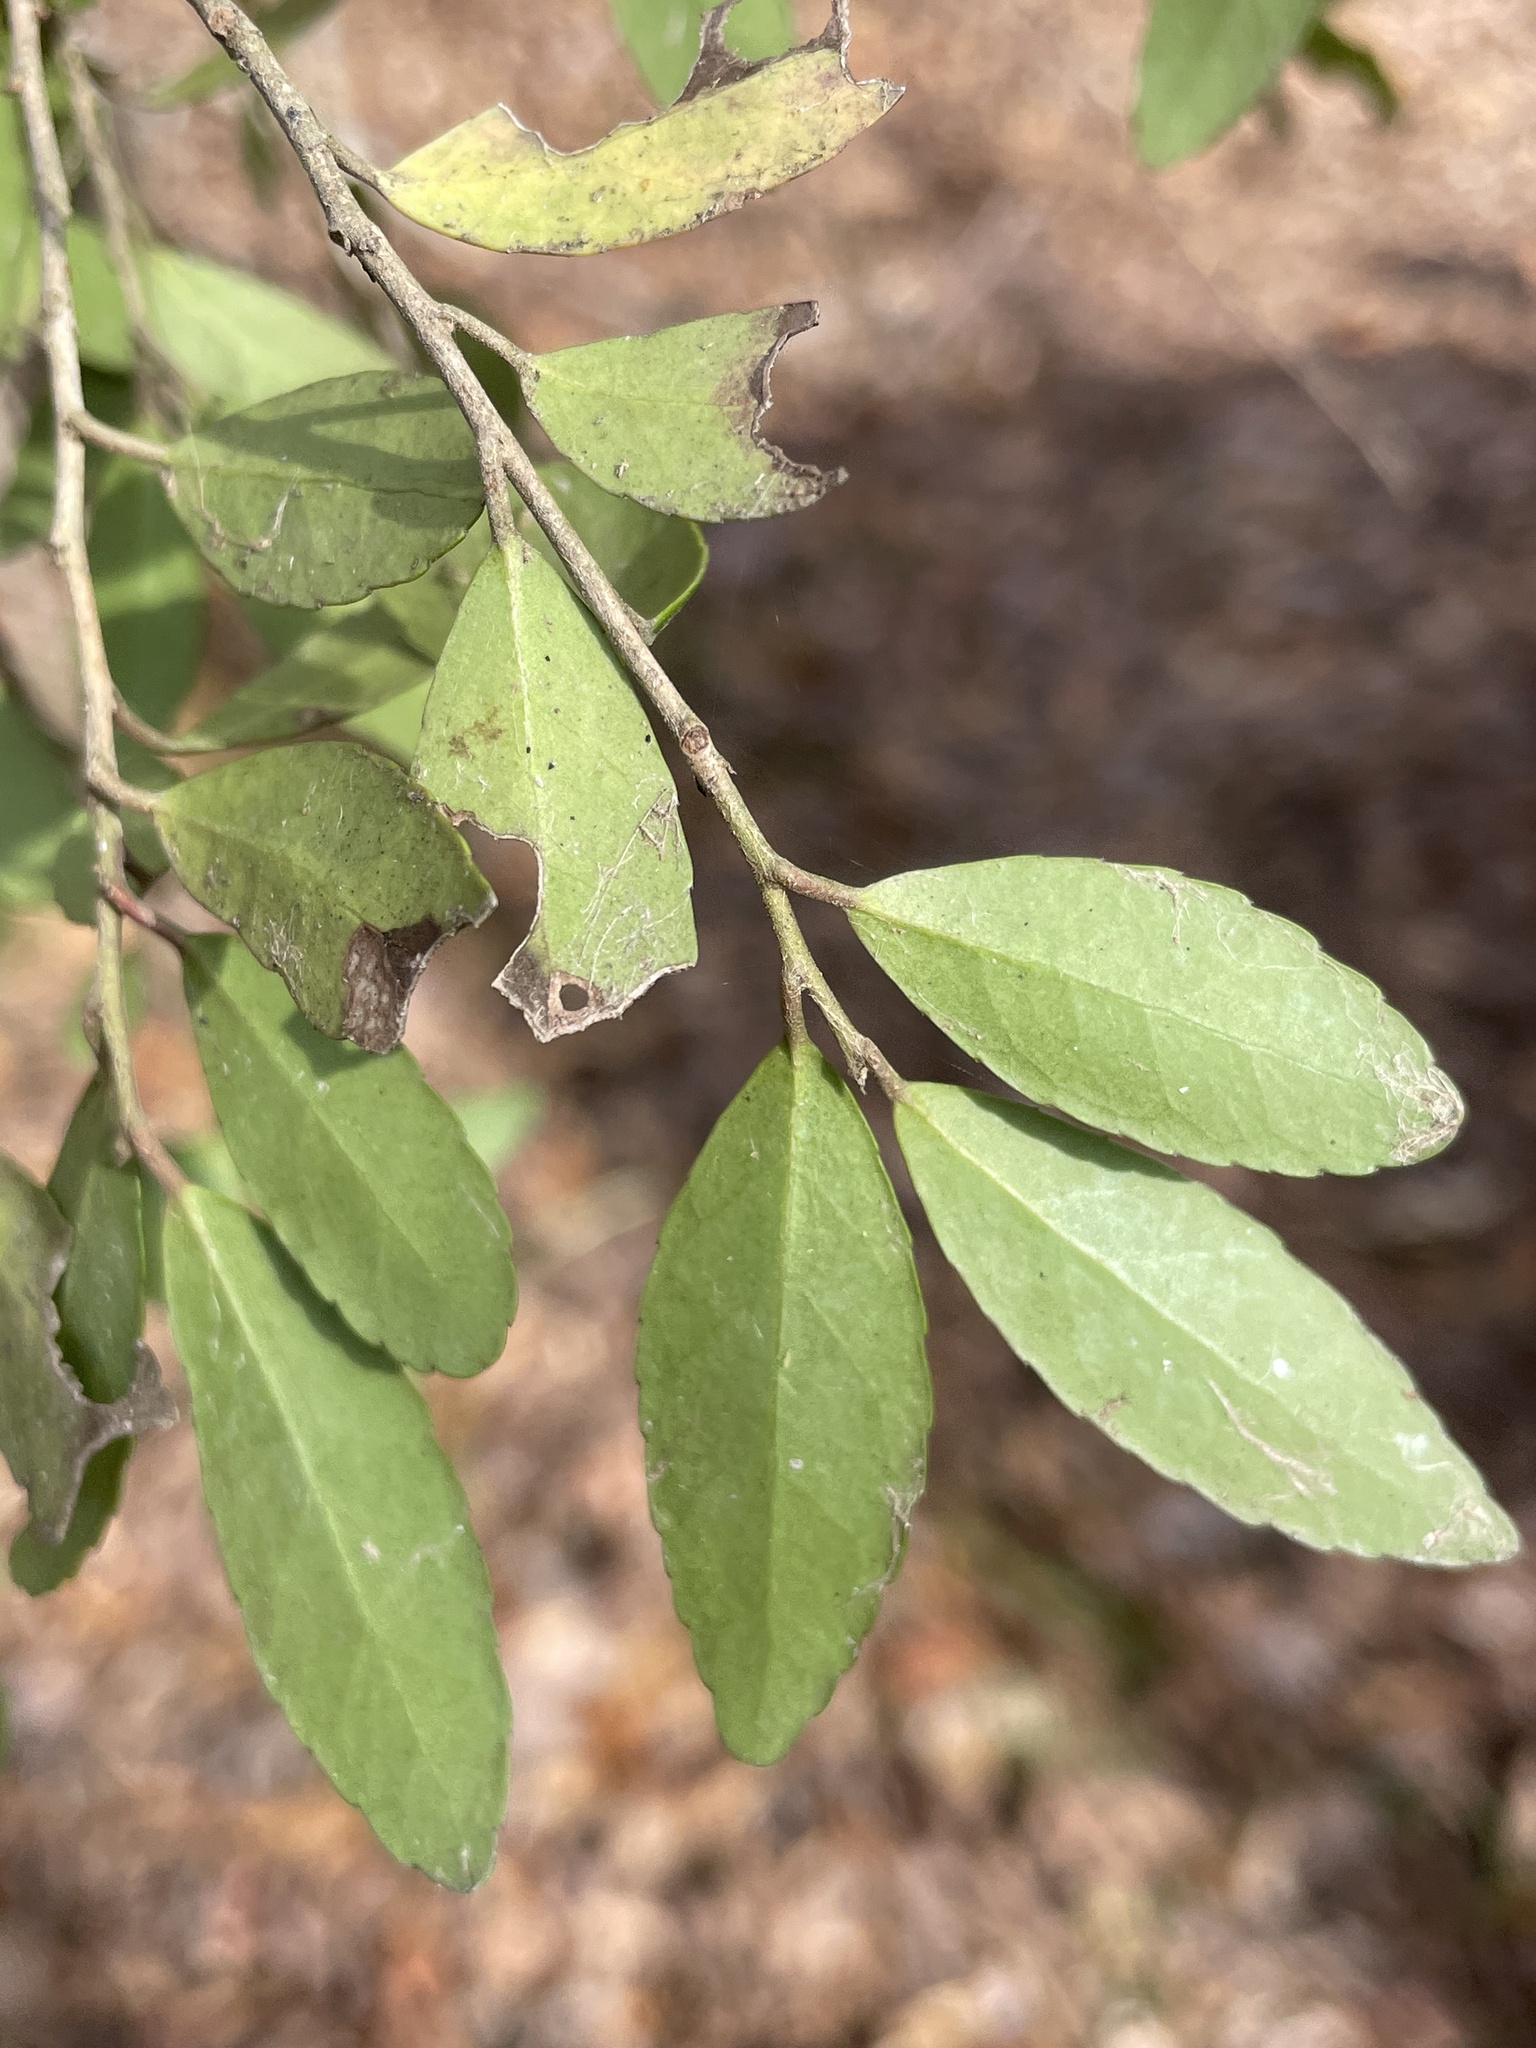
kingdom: Plantae
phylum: Tracheophyta
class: Magnoliopsida
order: Aquifoliales
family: Aquifoliaceae
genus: Ilex
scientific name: Ilex vomitoria
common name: Yaupon holly
